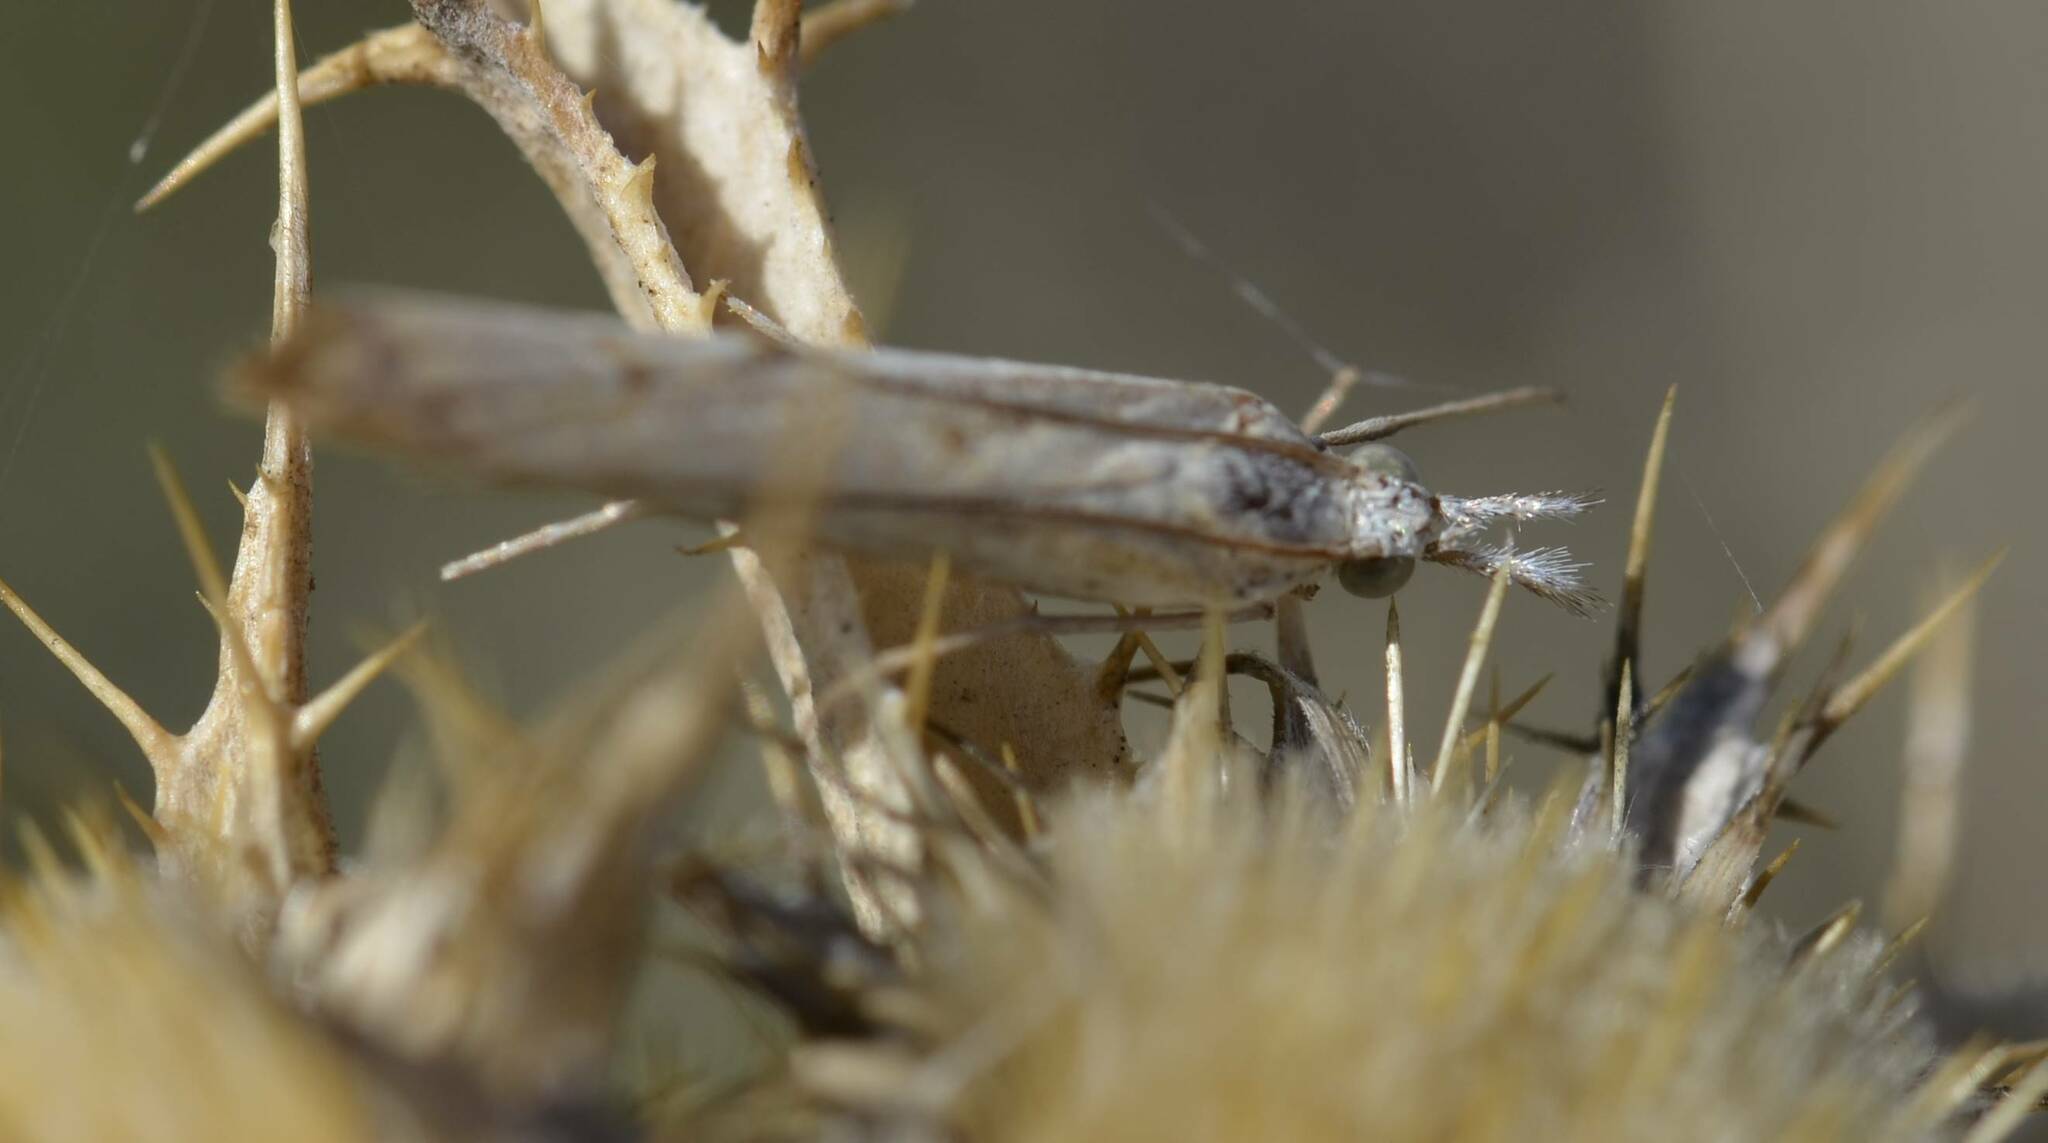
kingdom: Animalia
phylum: Arthropoda
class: Insecta
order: Lepidoptera
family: Crambidae
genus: Agriphila
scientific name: Agriphila geniculea
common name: Elbow-stripe grass-veneer
